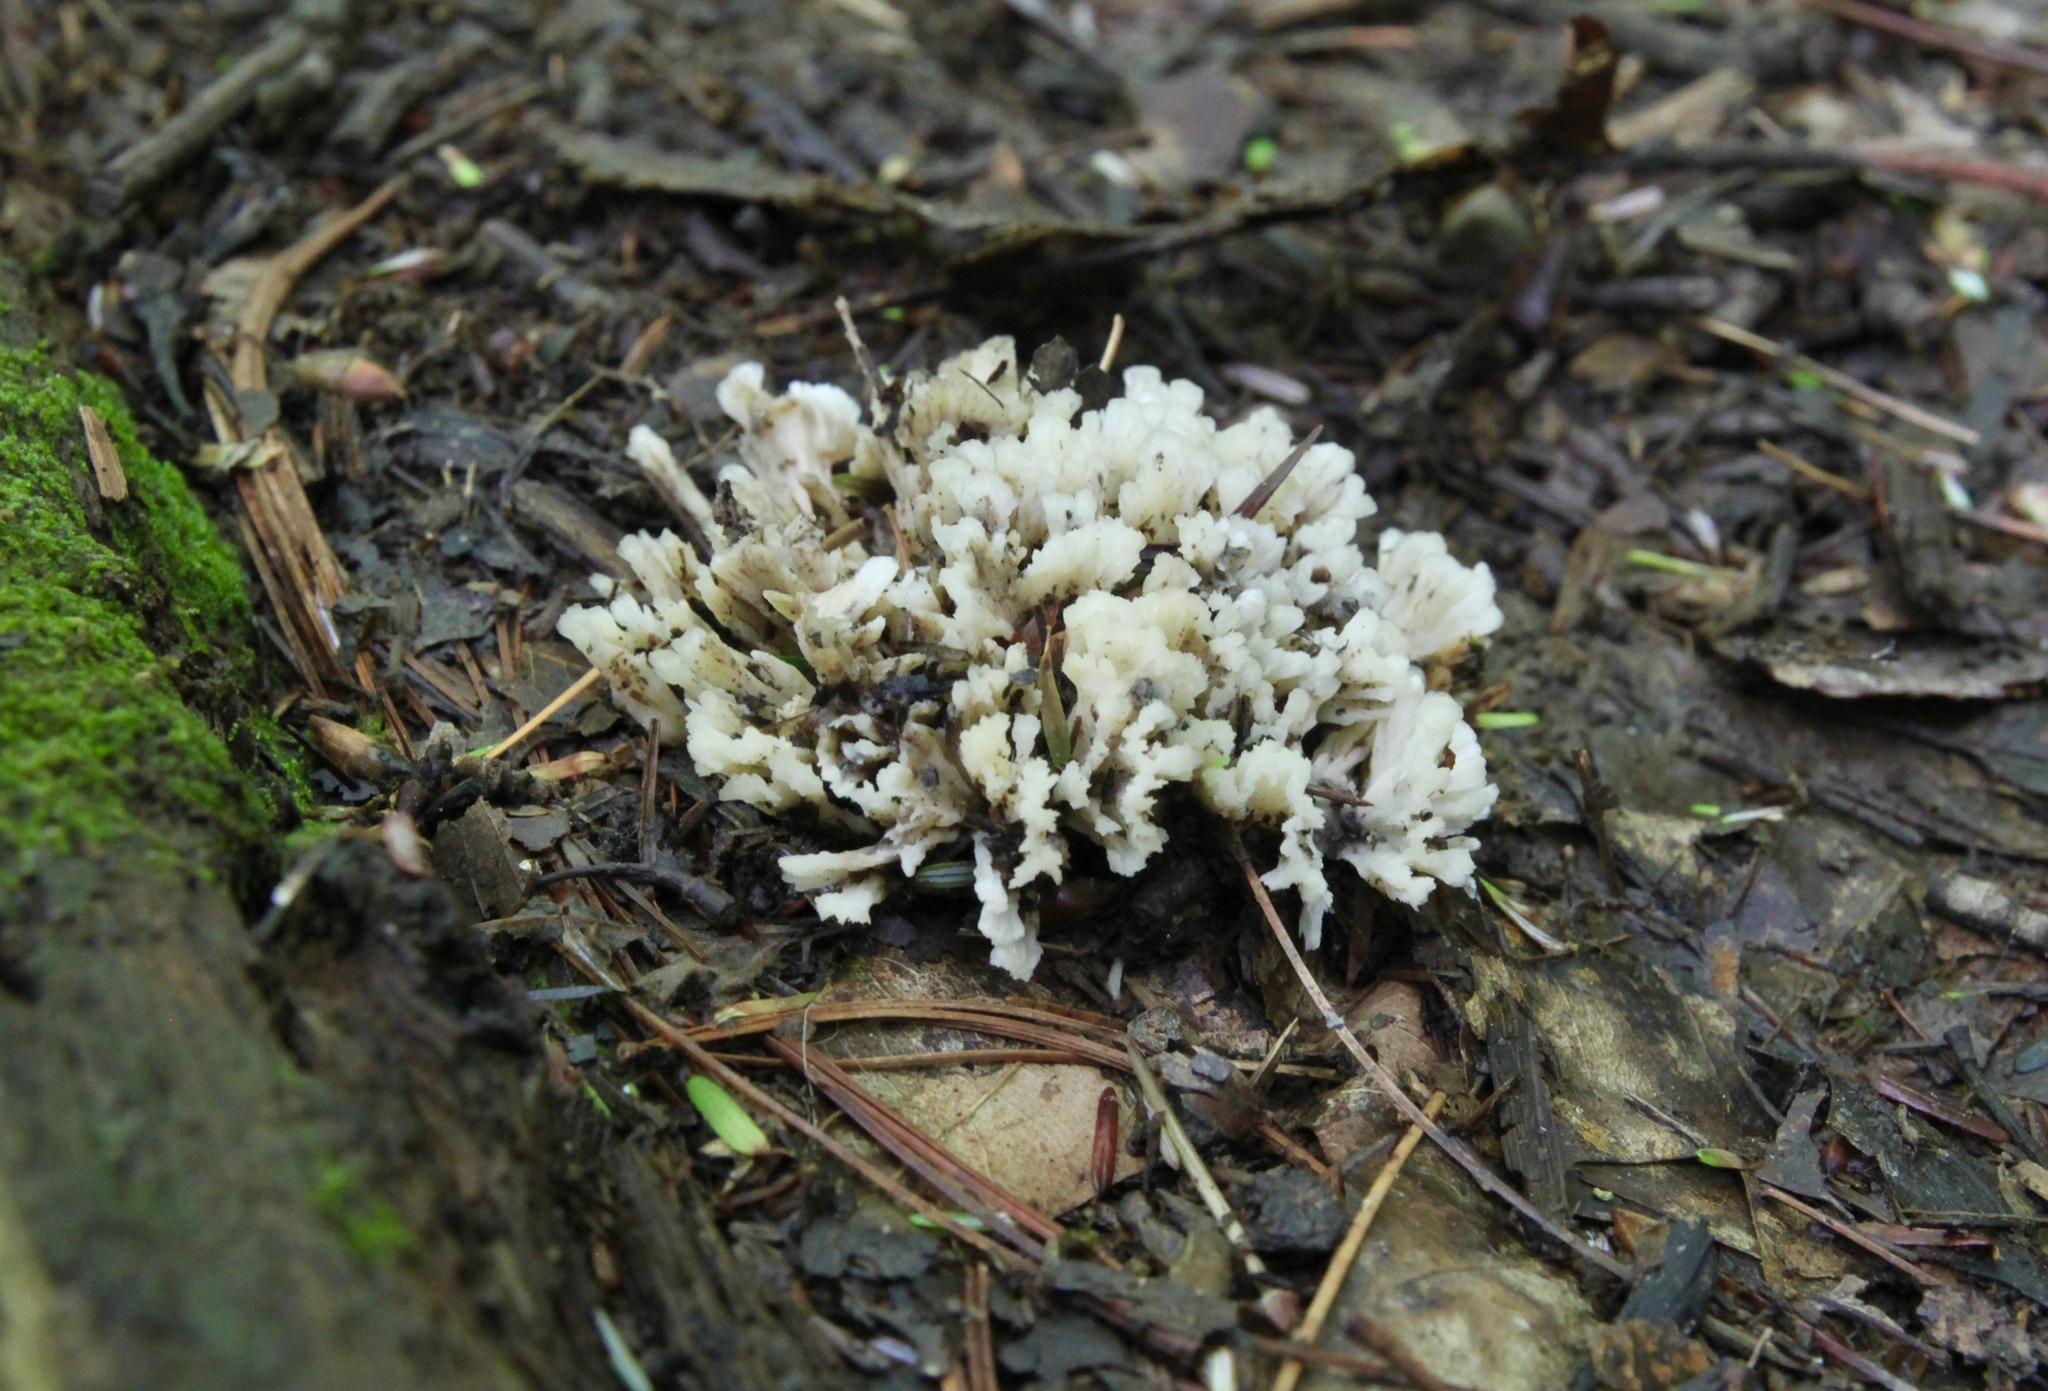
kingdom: Fungi
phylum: Basidiomycota
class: Agaricomycetes
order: Sebacinales
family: Sebacinaceae
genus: Sebacina
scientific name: Sebacina schweinitzii
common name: Jellied false coral fungus
